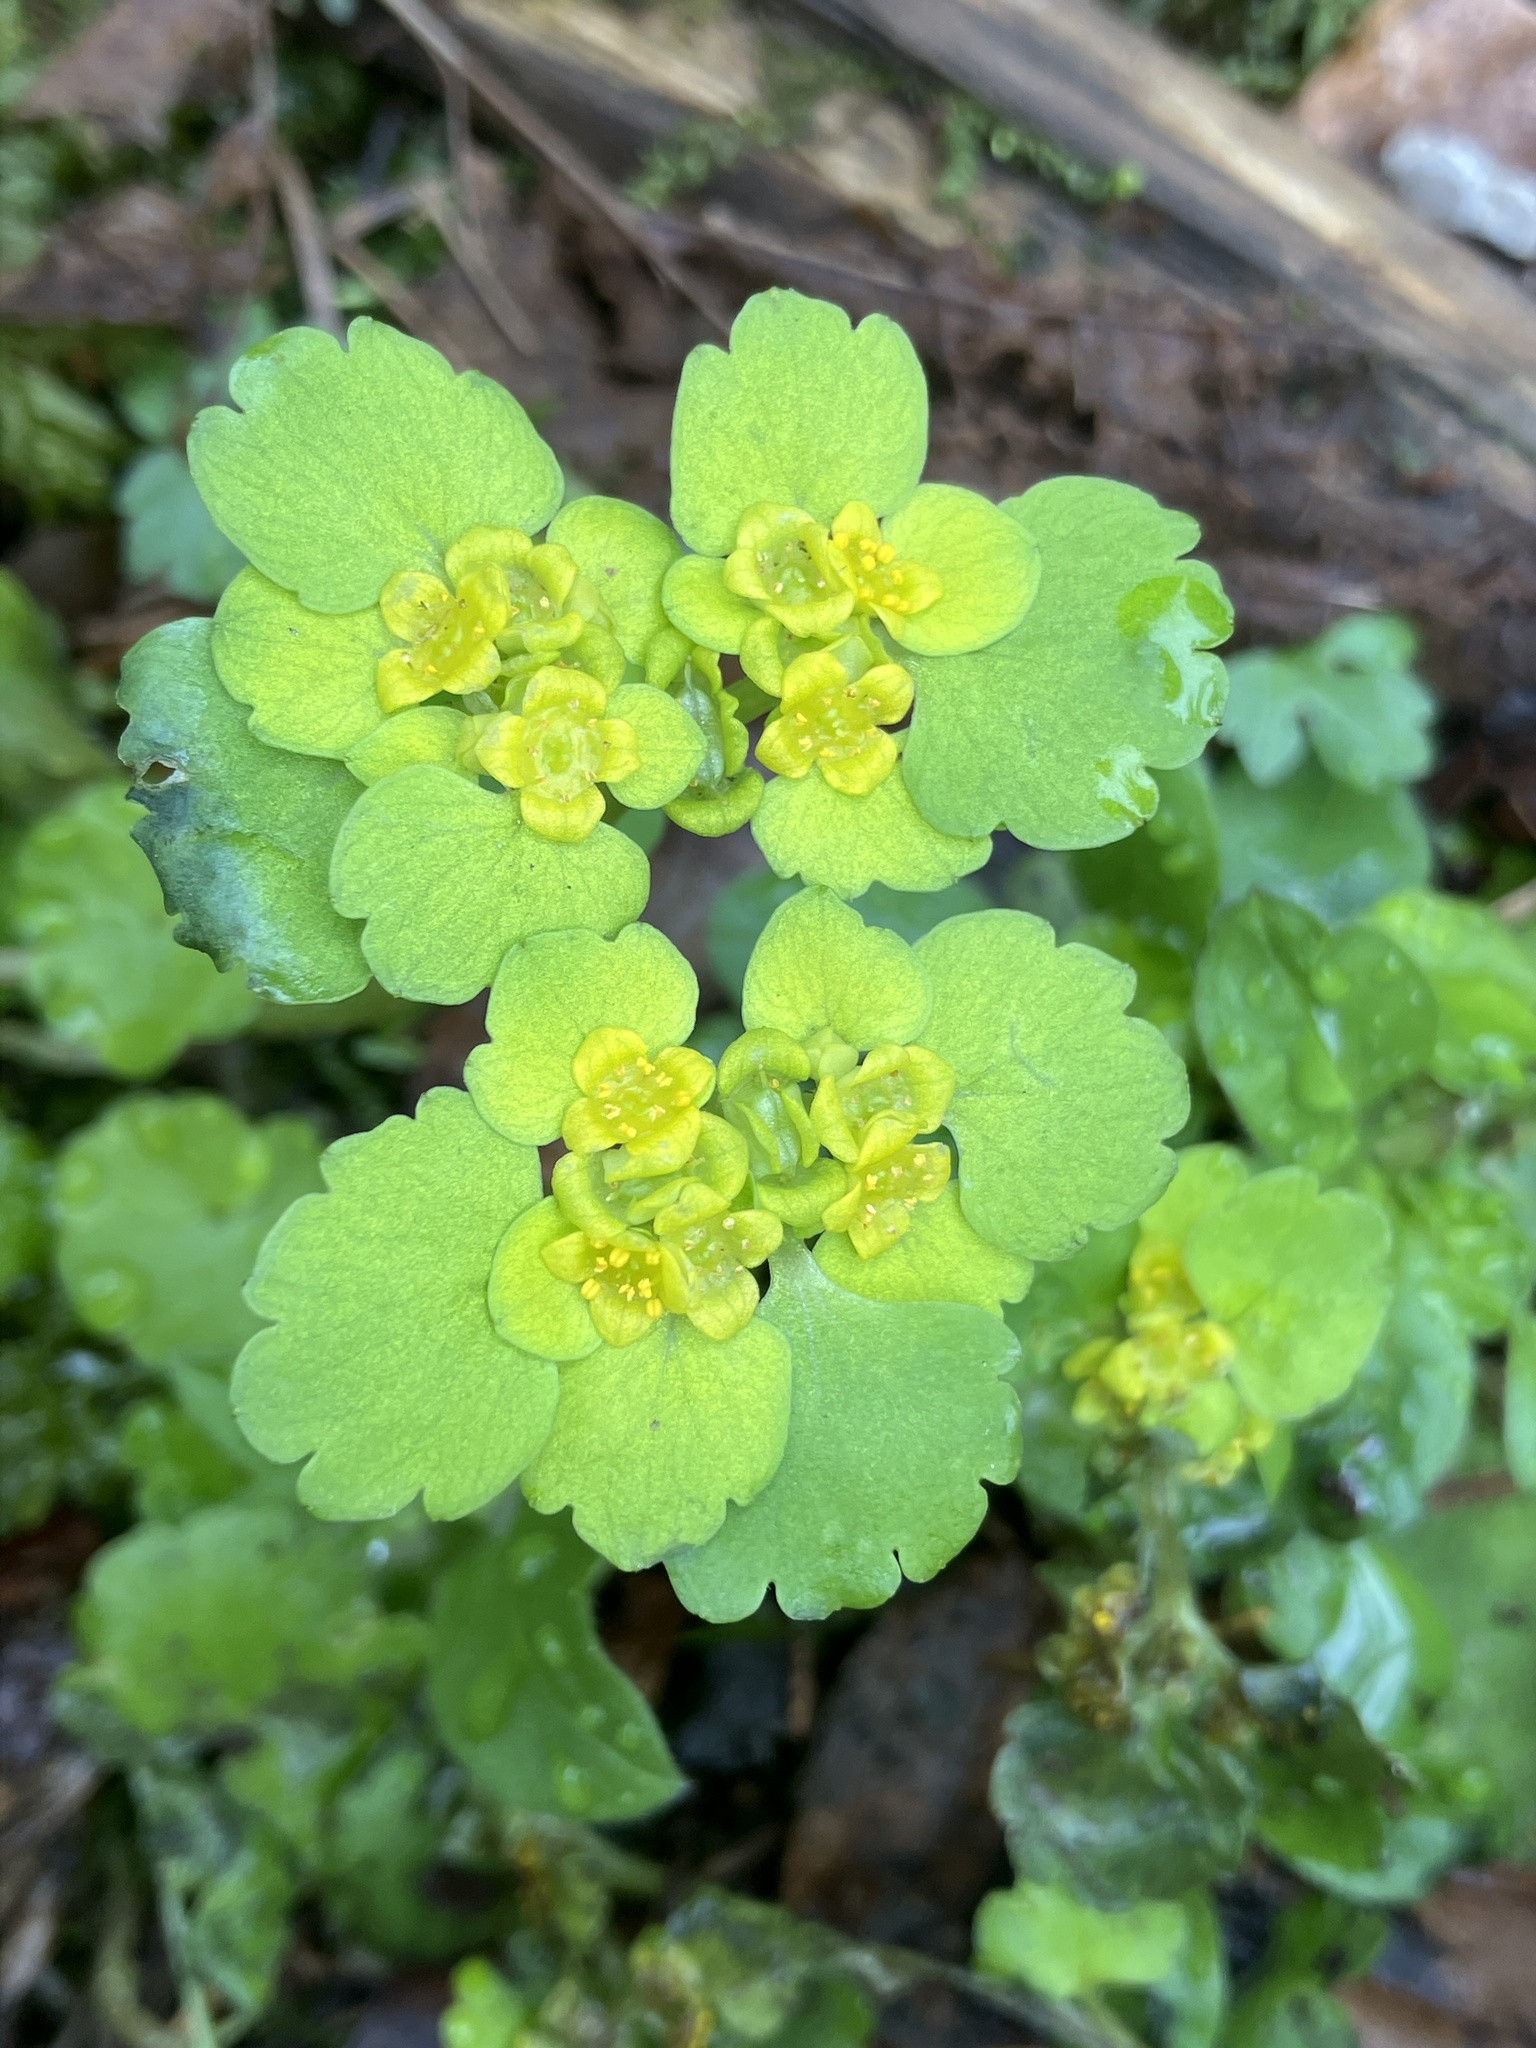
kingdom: Plantae
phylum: Tracheophyta
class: Magnoliopsida
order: Saxifragales
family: Saxifragaceae
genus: Chrysosplenium
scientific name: Chrysosplenium alternifolium
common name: Alternate-leaved golden-saxifrage
